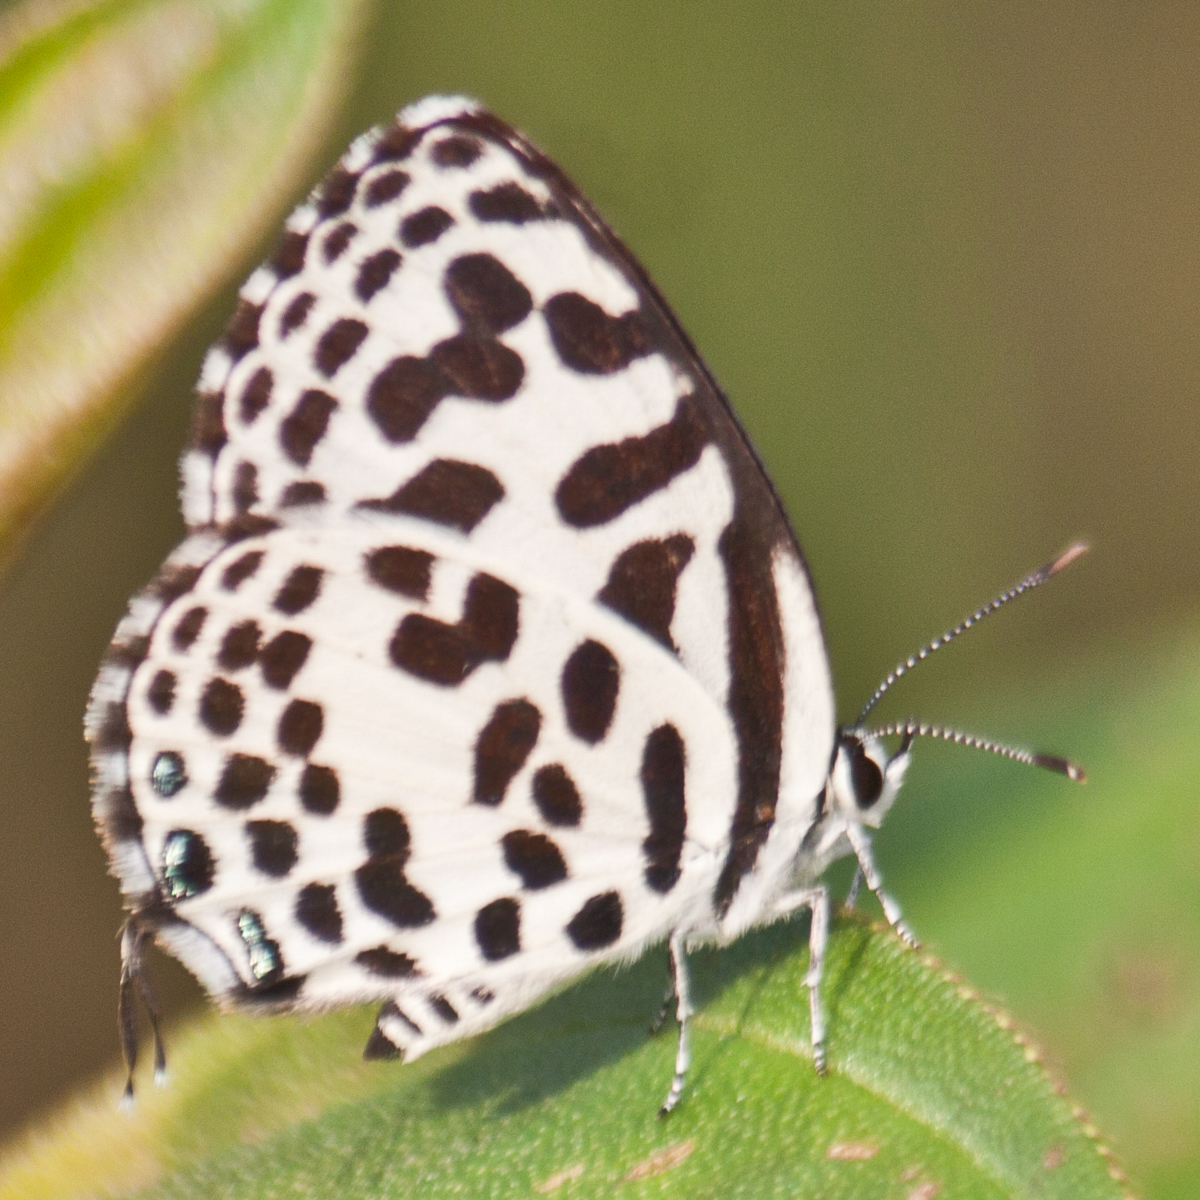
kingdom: Animalia
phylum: Arthropoda
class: Insecta
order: Lepidoptera
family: Lycaenidae
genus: Castalius
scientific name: Castalius rosimon
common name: Common pierrot
